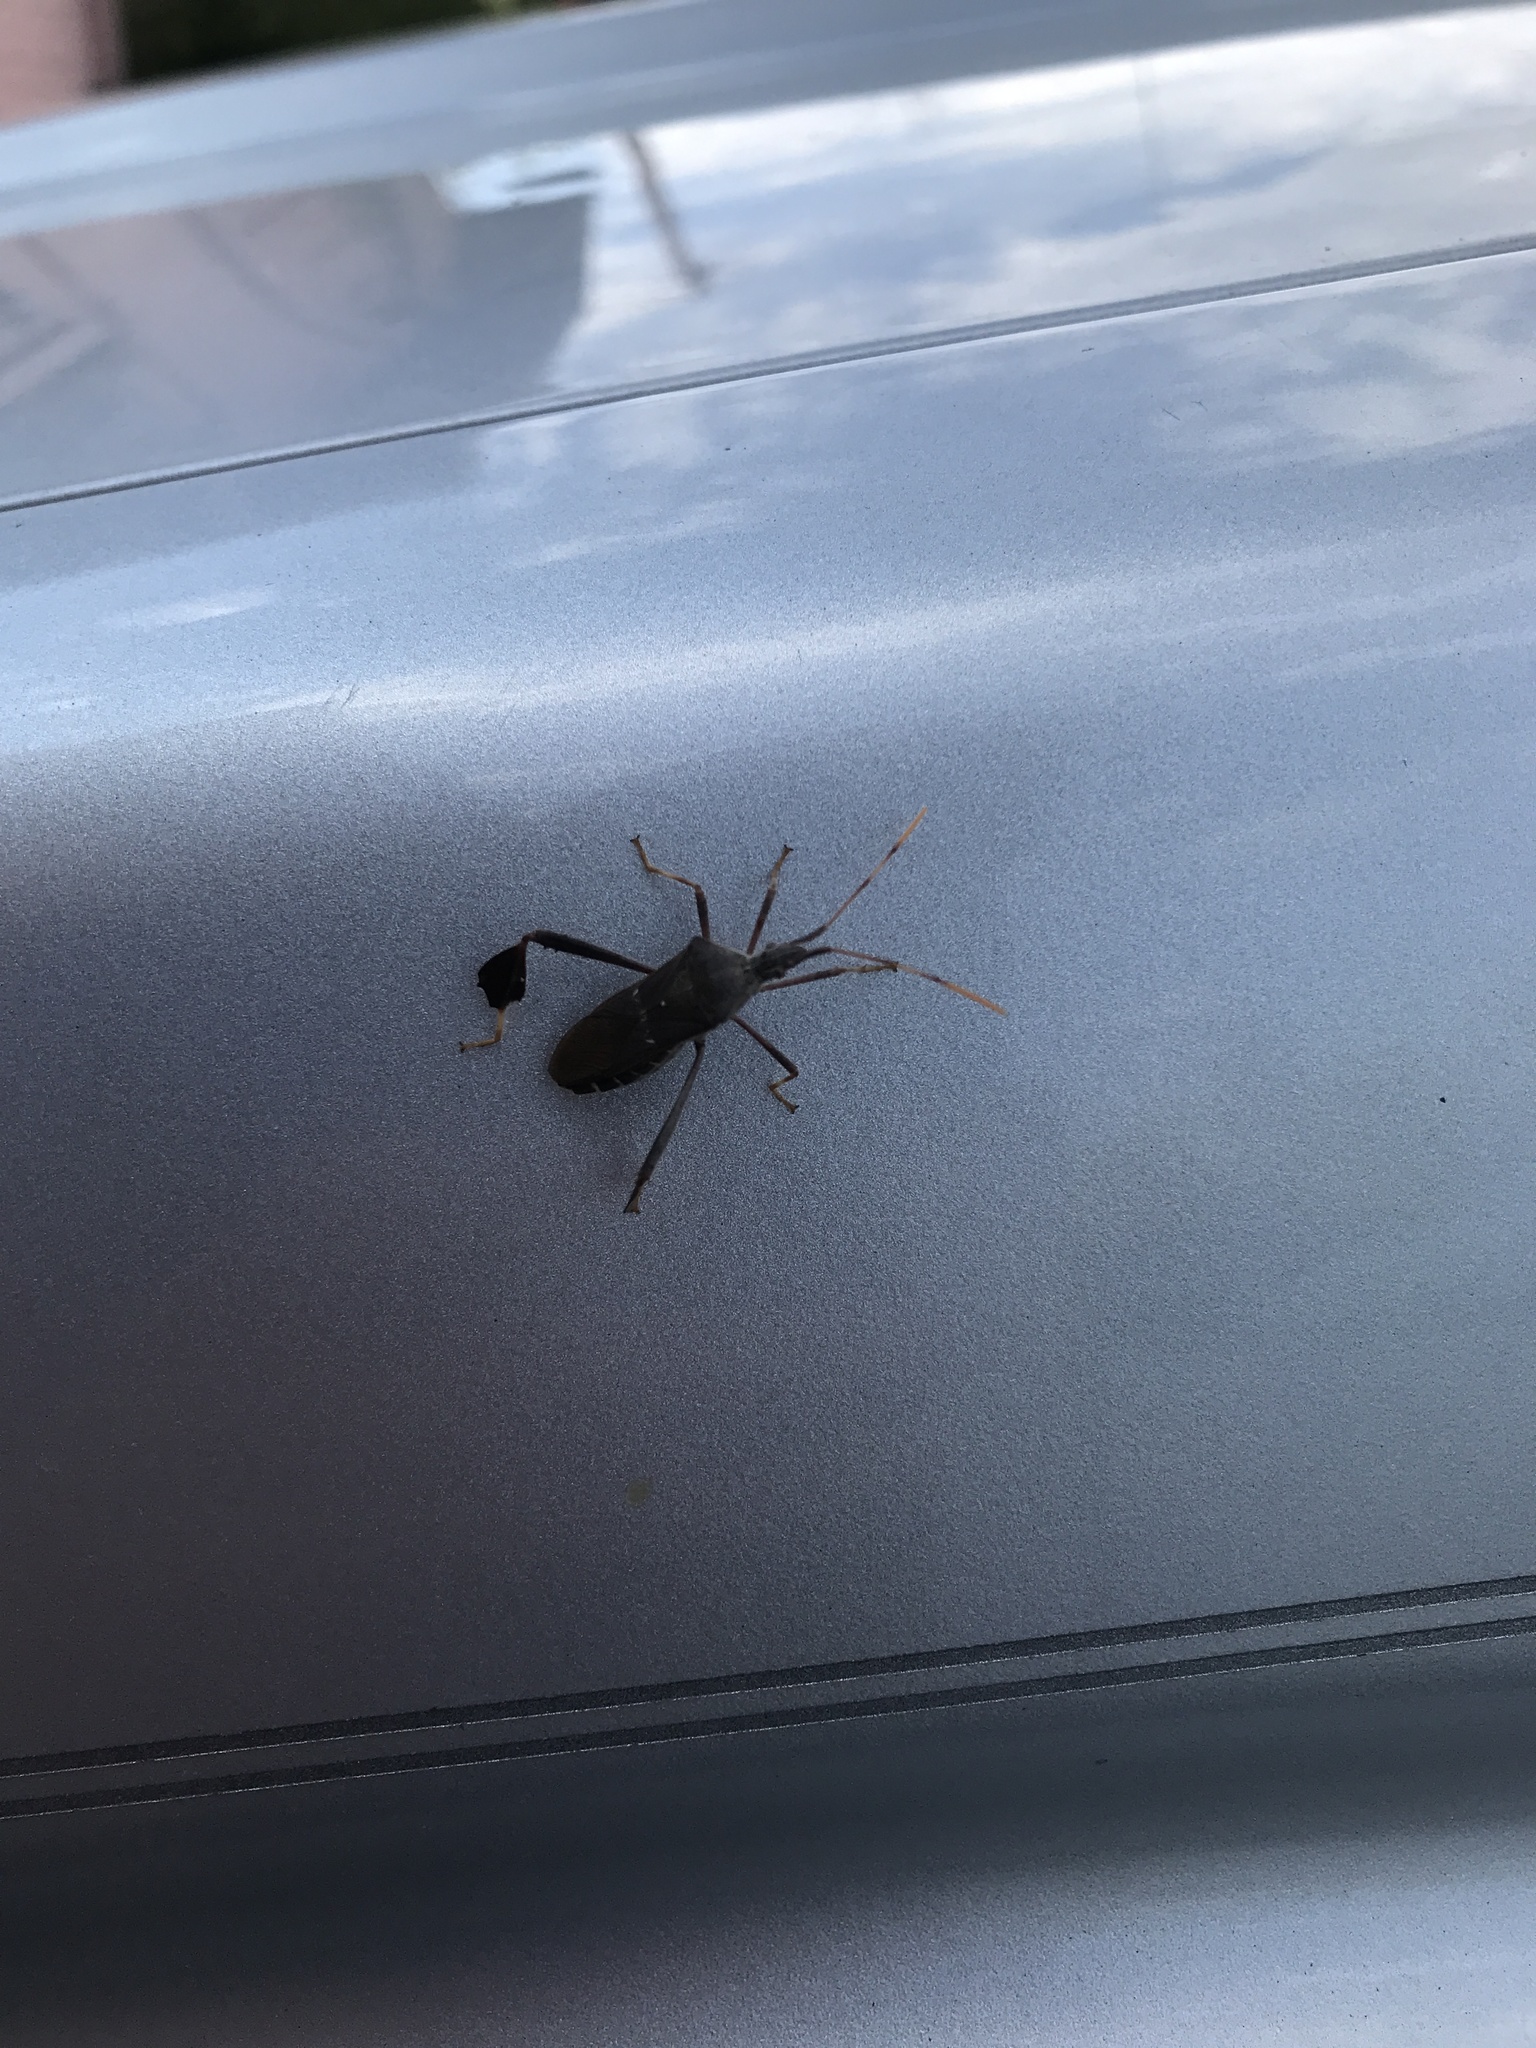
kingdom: Animalia
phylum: Arthropoda
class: Insecta
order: Hemiptera
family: Coreidae
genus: Leptoglossus
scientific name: Leptoglossus oppositus
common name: Northern leaf-footed bug
